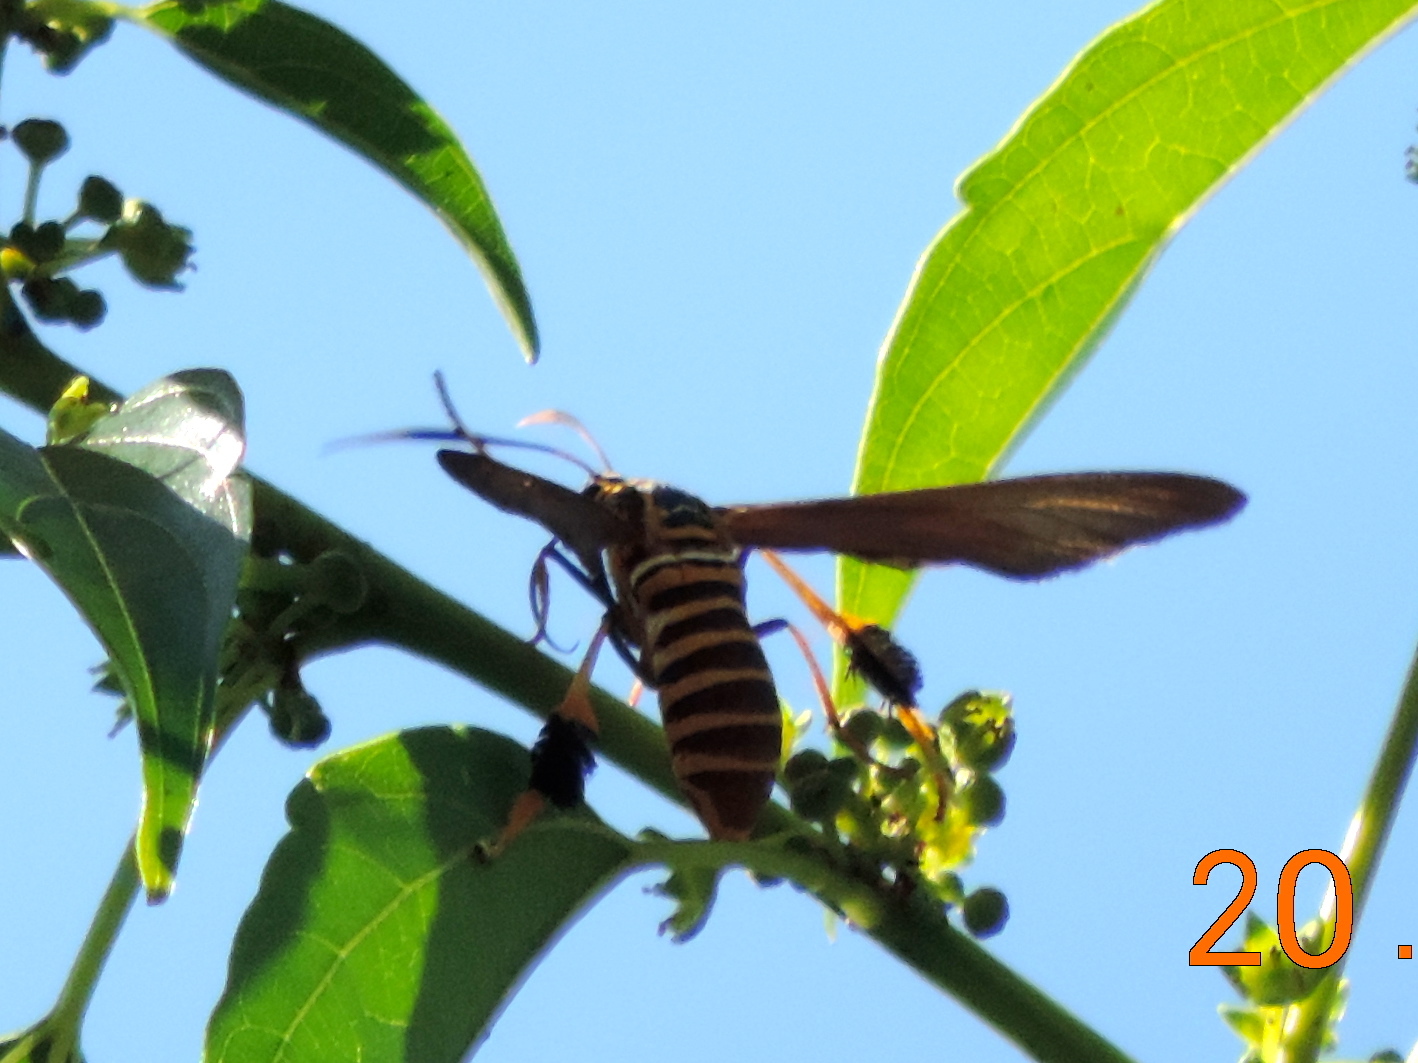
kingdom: Animalia
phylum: Arthropoda
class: Insecta
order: Lepidoptera
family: Erebidae
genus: Horama
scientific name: Horama panthalon
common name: Texas wasp moth
